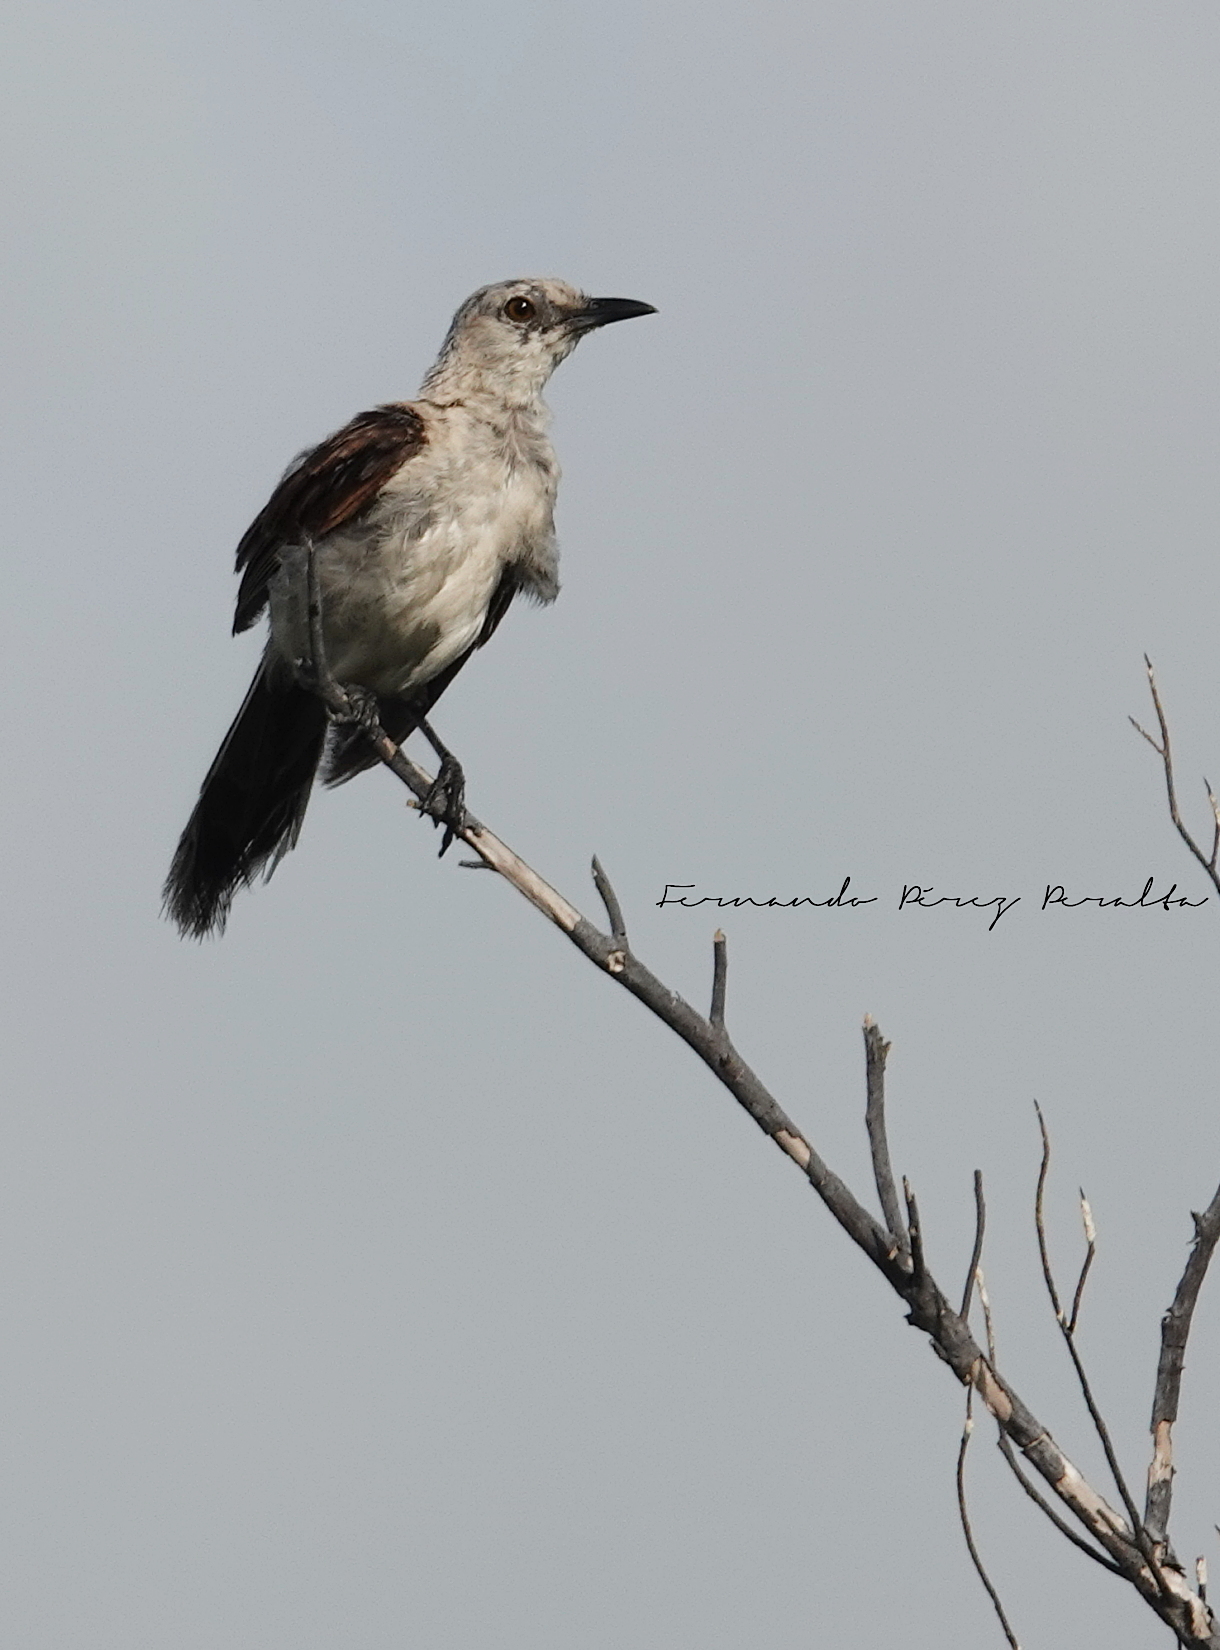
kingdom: Animalia
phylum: Chordata
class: Aves
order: Passeriformes
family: Mimidae
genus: Mimus
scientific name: Mimus gilvus
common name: Tropical mockingbird
